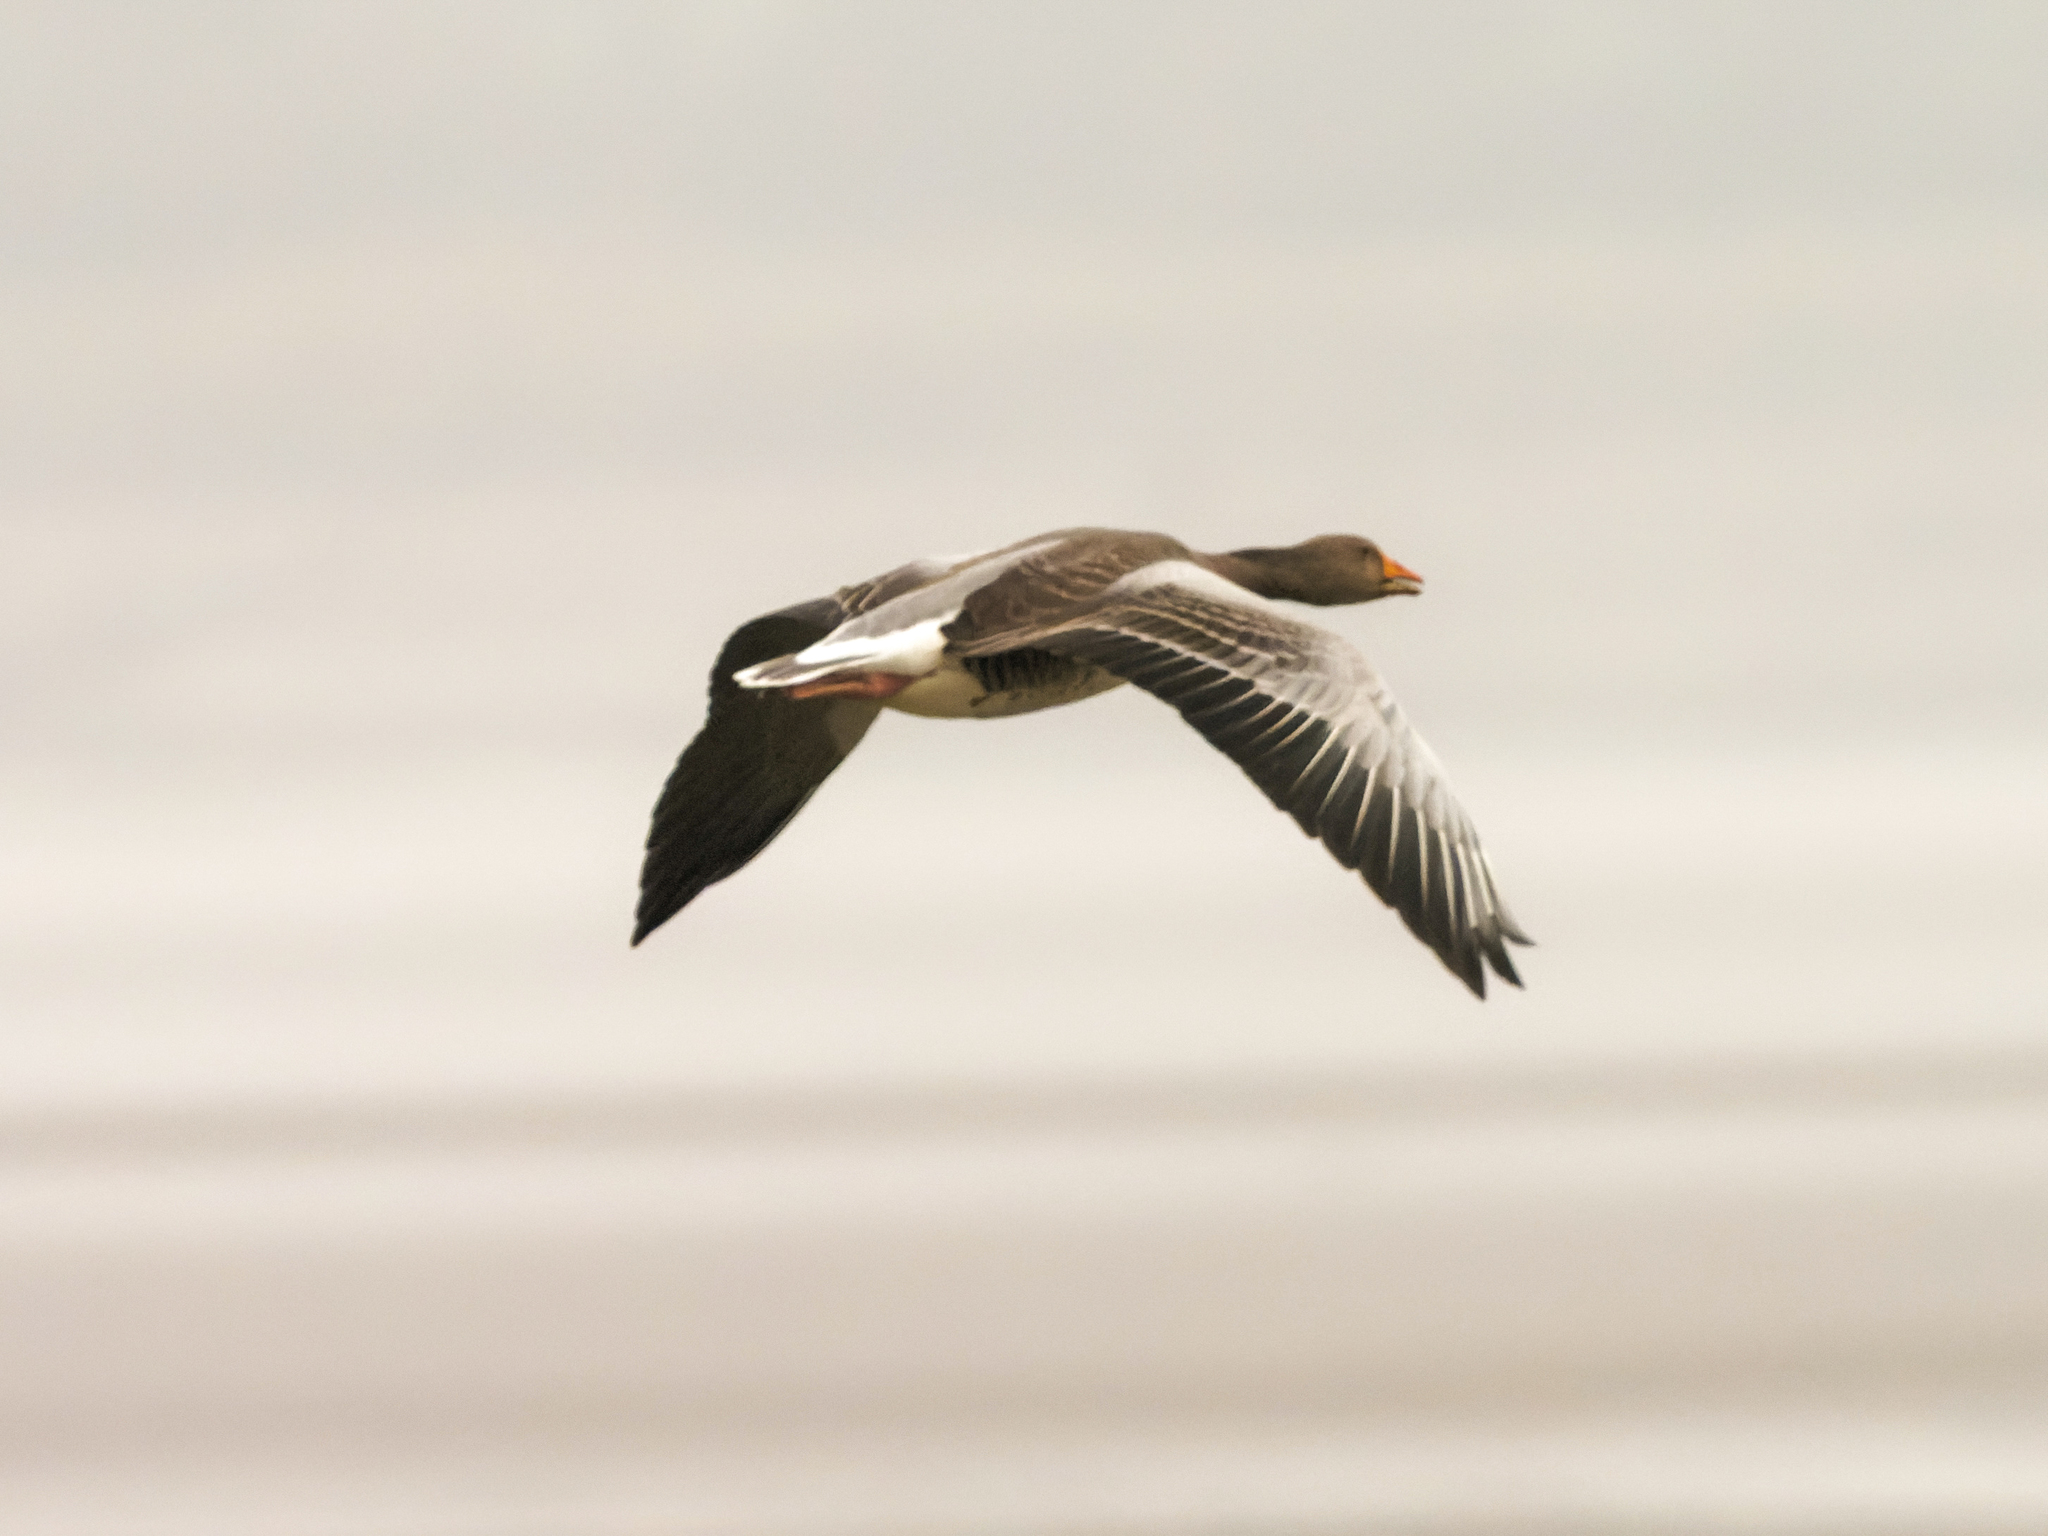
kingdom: Animalia
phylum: Chordata
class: Aves
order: Anseriformes
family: Anatidae
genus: Anser
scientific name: Anser anser
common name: Greylag goose
